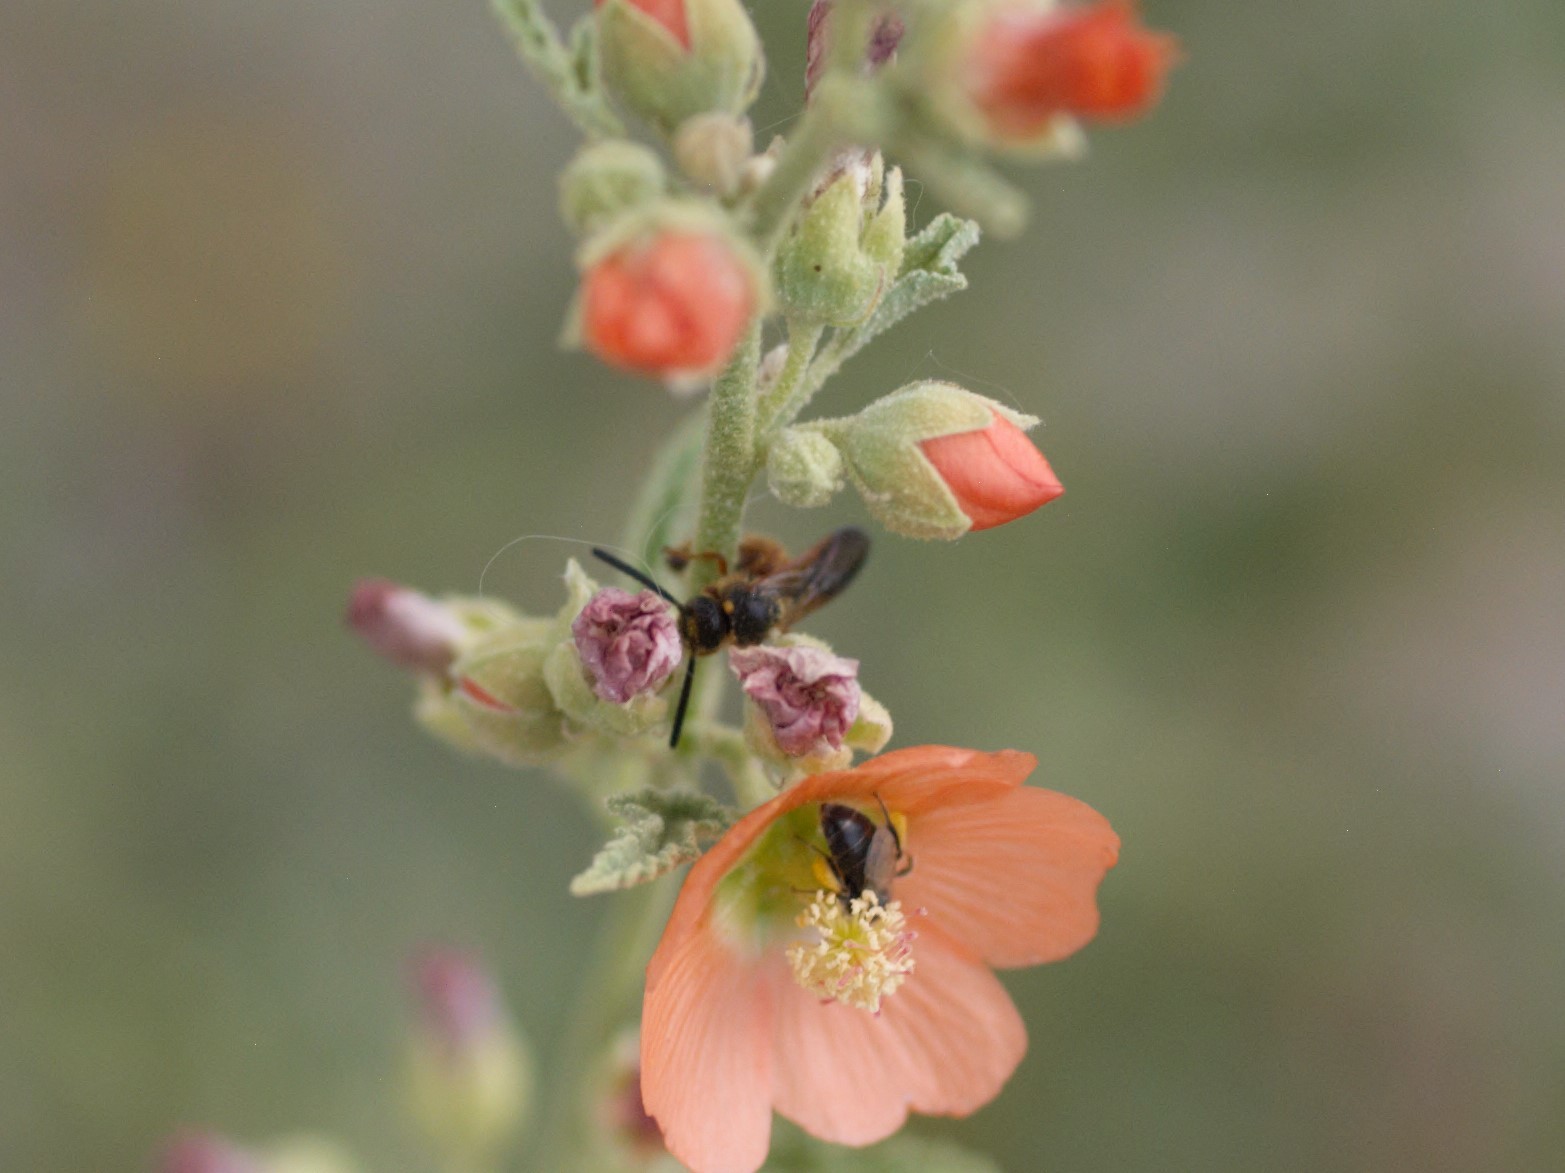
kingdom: Animalia
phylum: Arthropoda
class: Insecta
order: Hymenoptera
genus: Macroteropsis
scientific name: Macroteropsis
